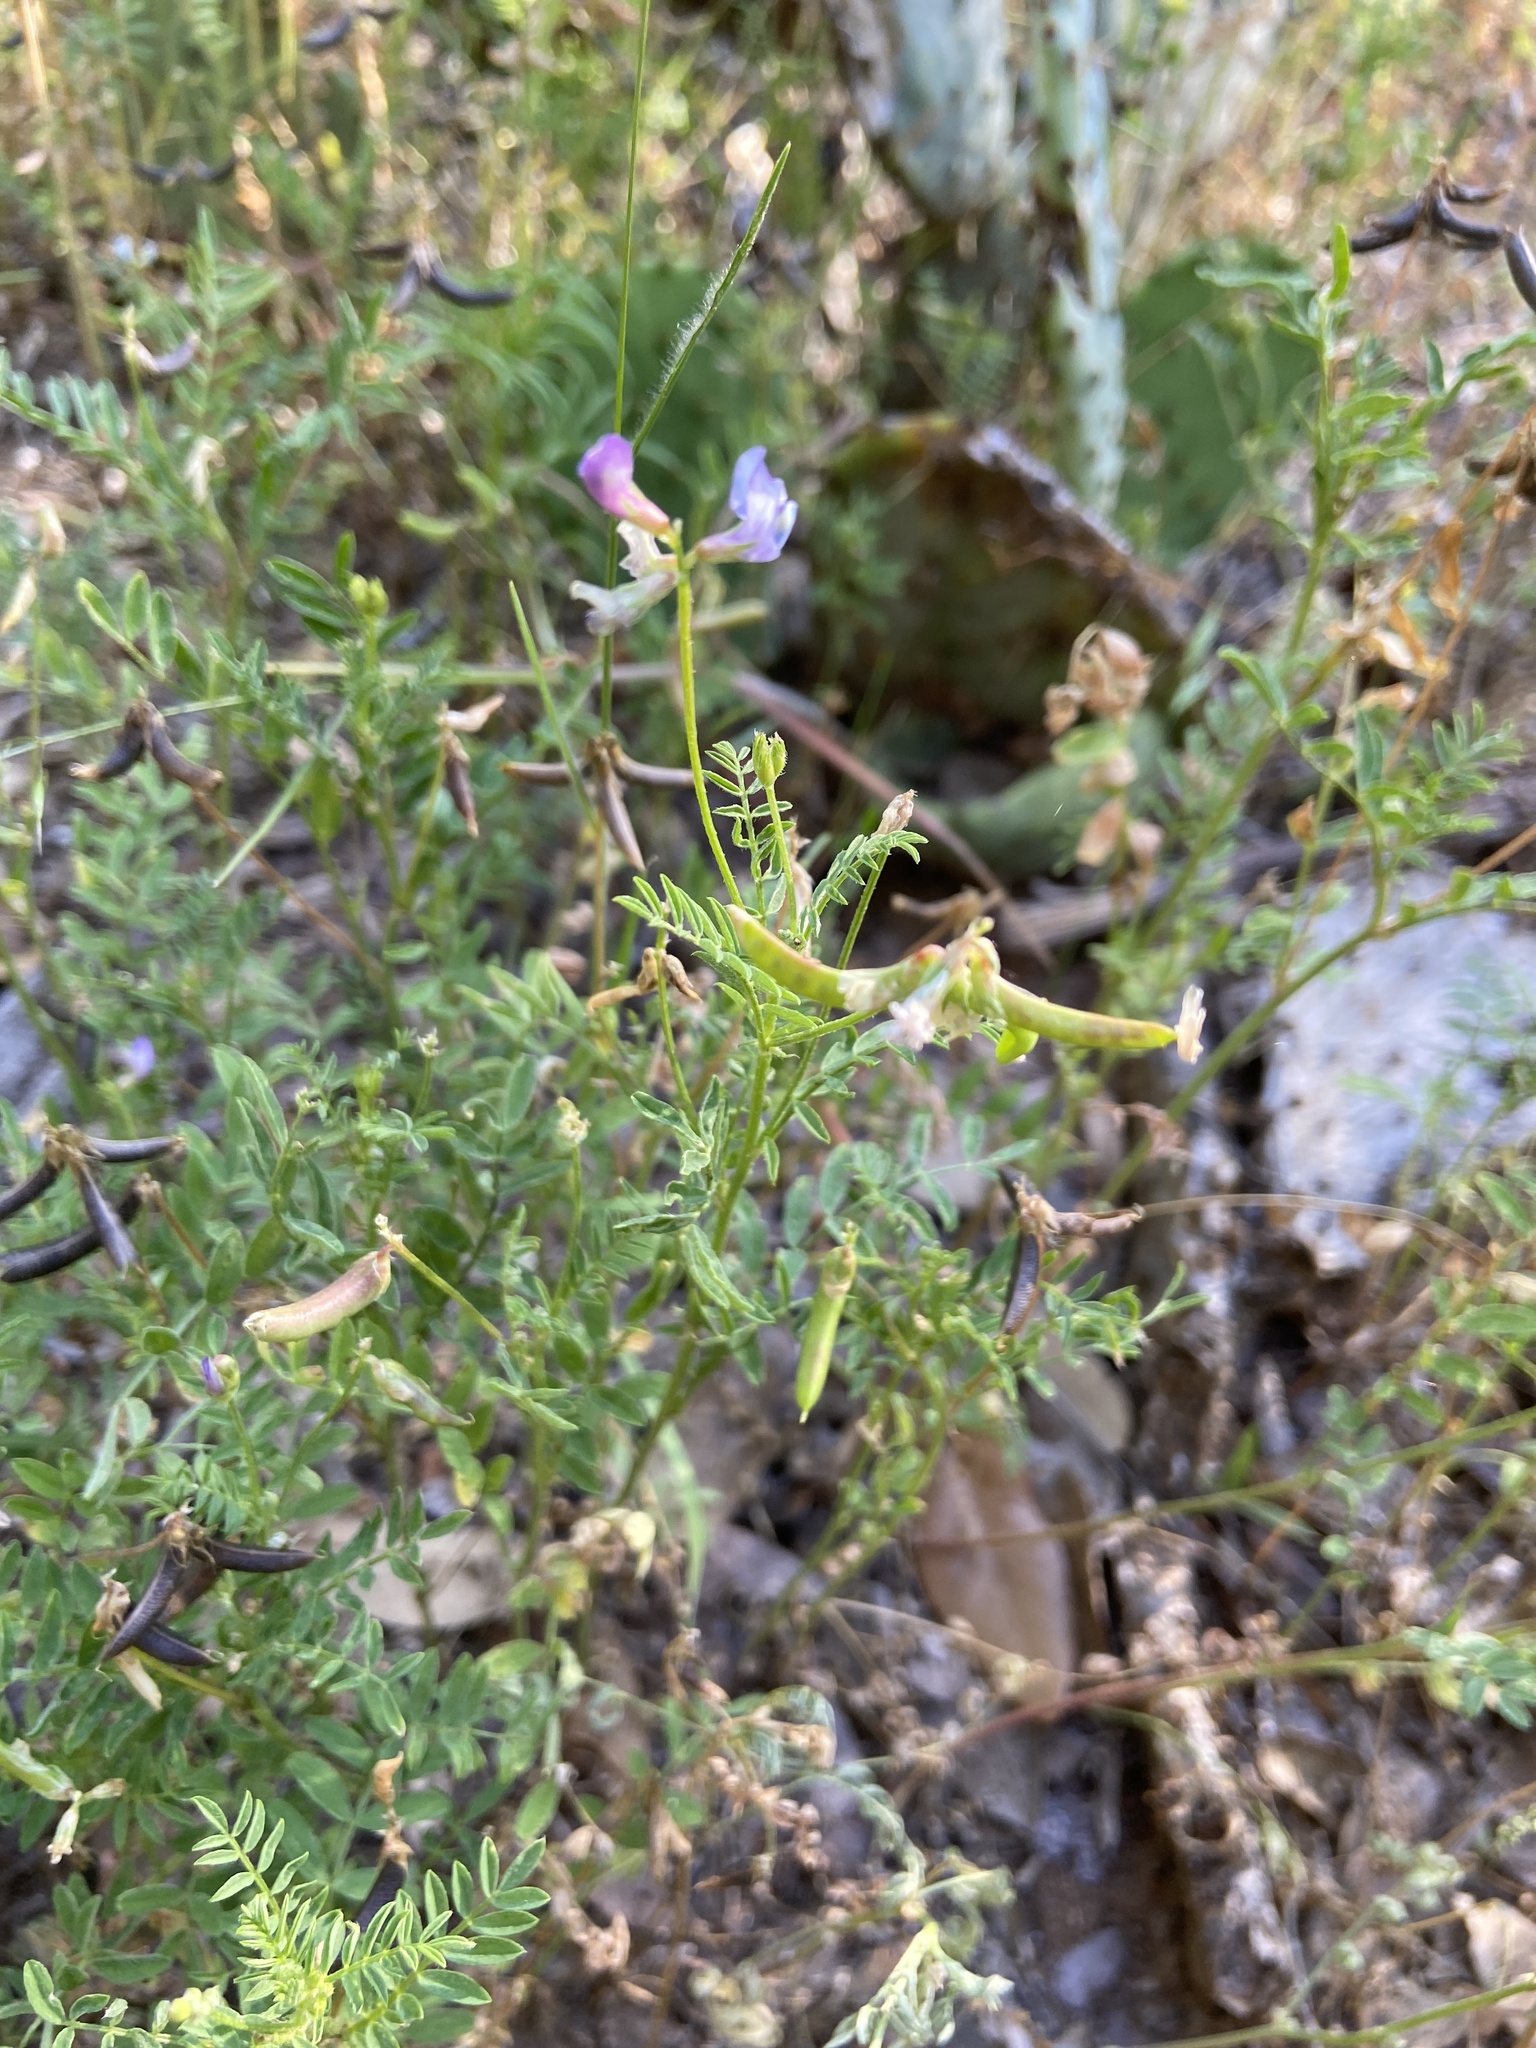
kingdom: Plantae
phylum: Tracheophyta
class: Magnoliopsida
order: Fabales
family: Fabaceae
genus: Astragalus
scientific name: Astragalus nuttallianus
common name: Smallflowered milkvetch
